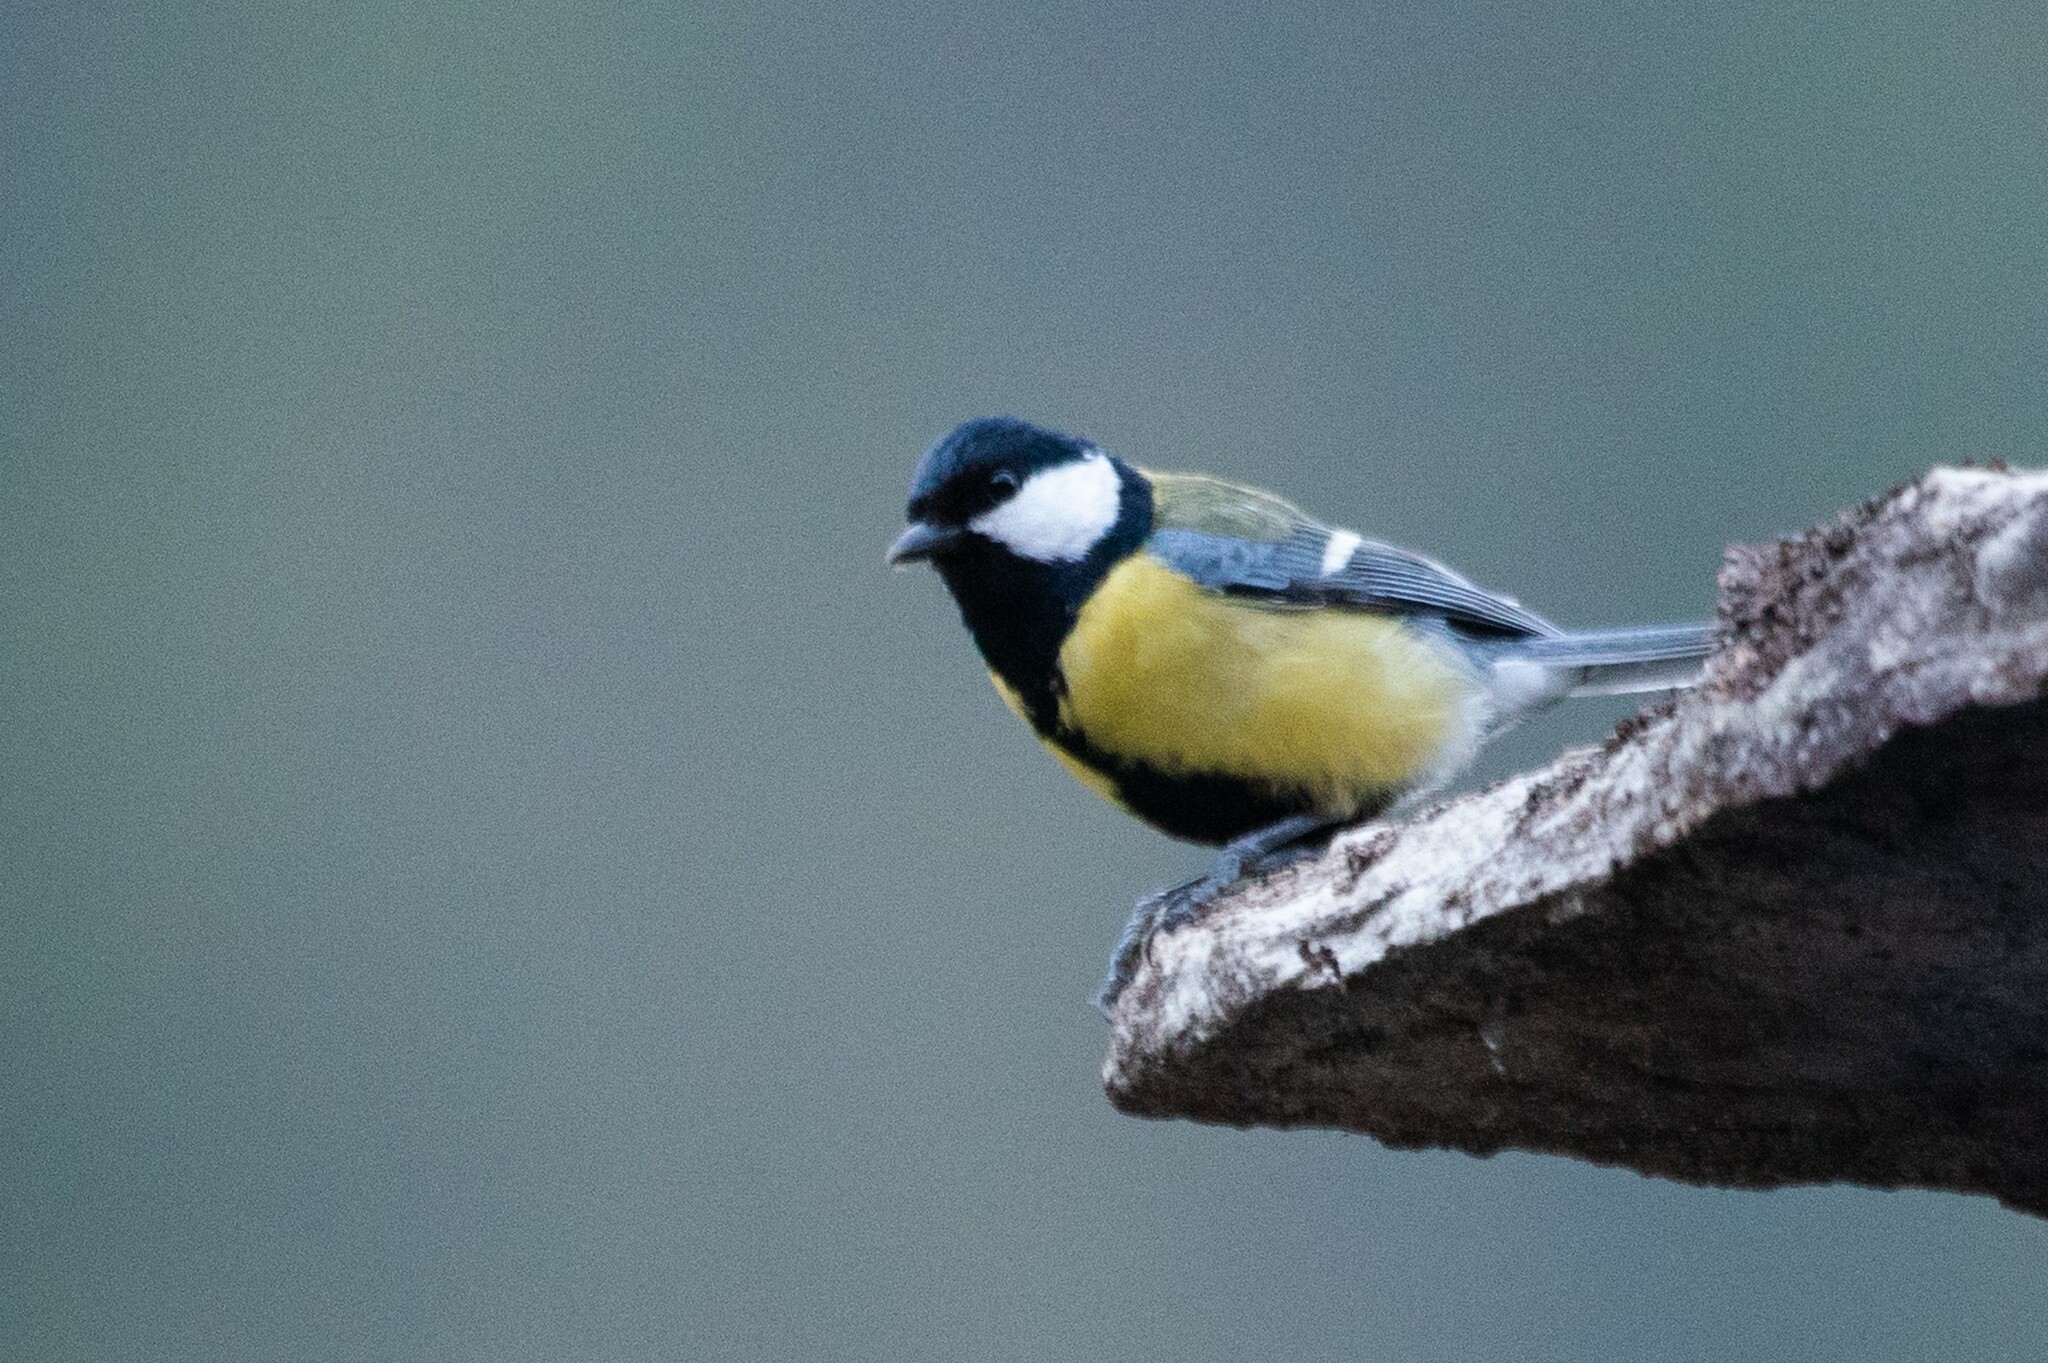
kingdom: Animalia
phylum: Chordata
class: Aves
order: Passeriformes
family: Paridae
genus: Parus
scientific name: Parus major
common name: Great tit
